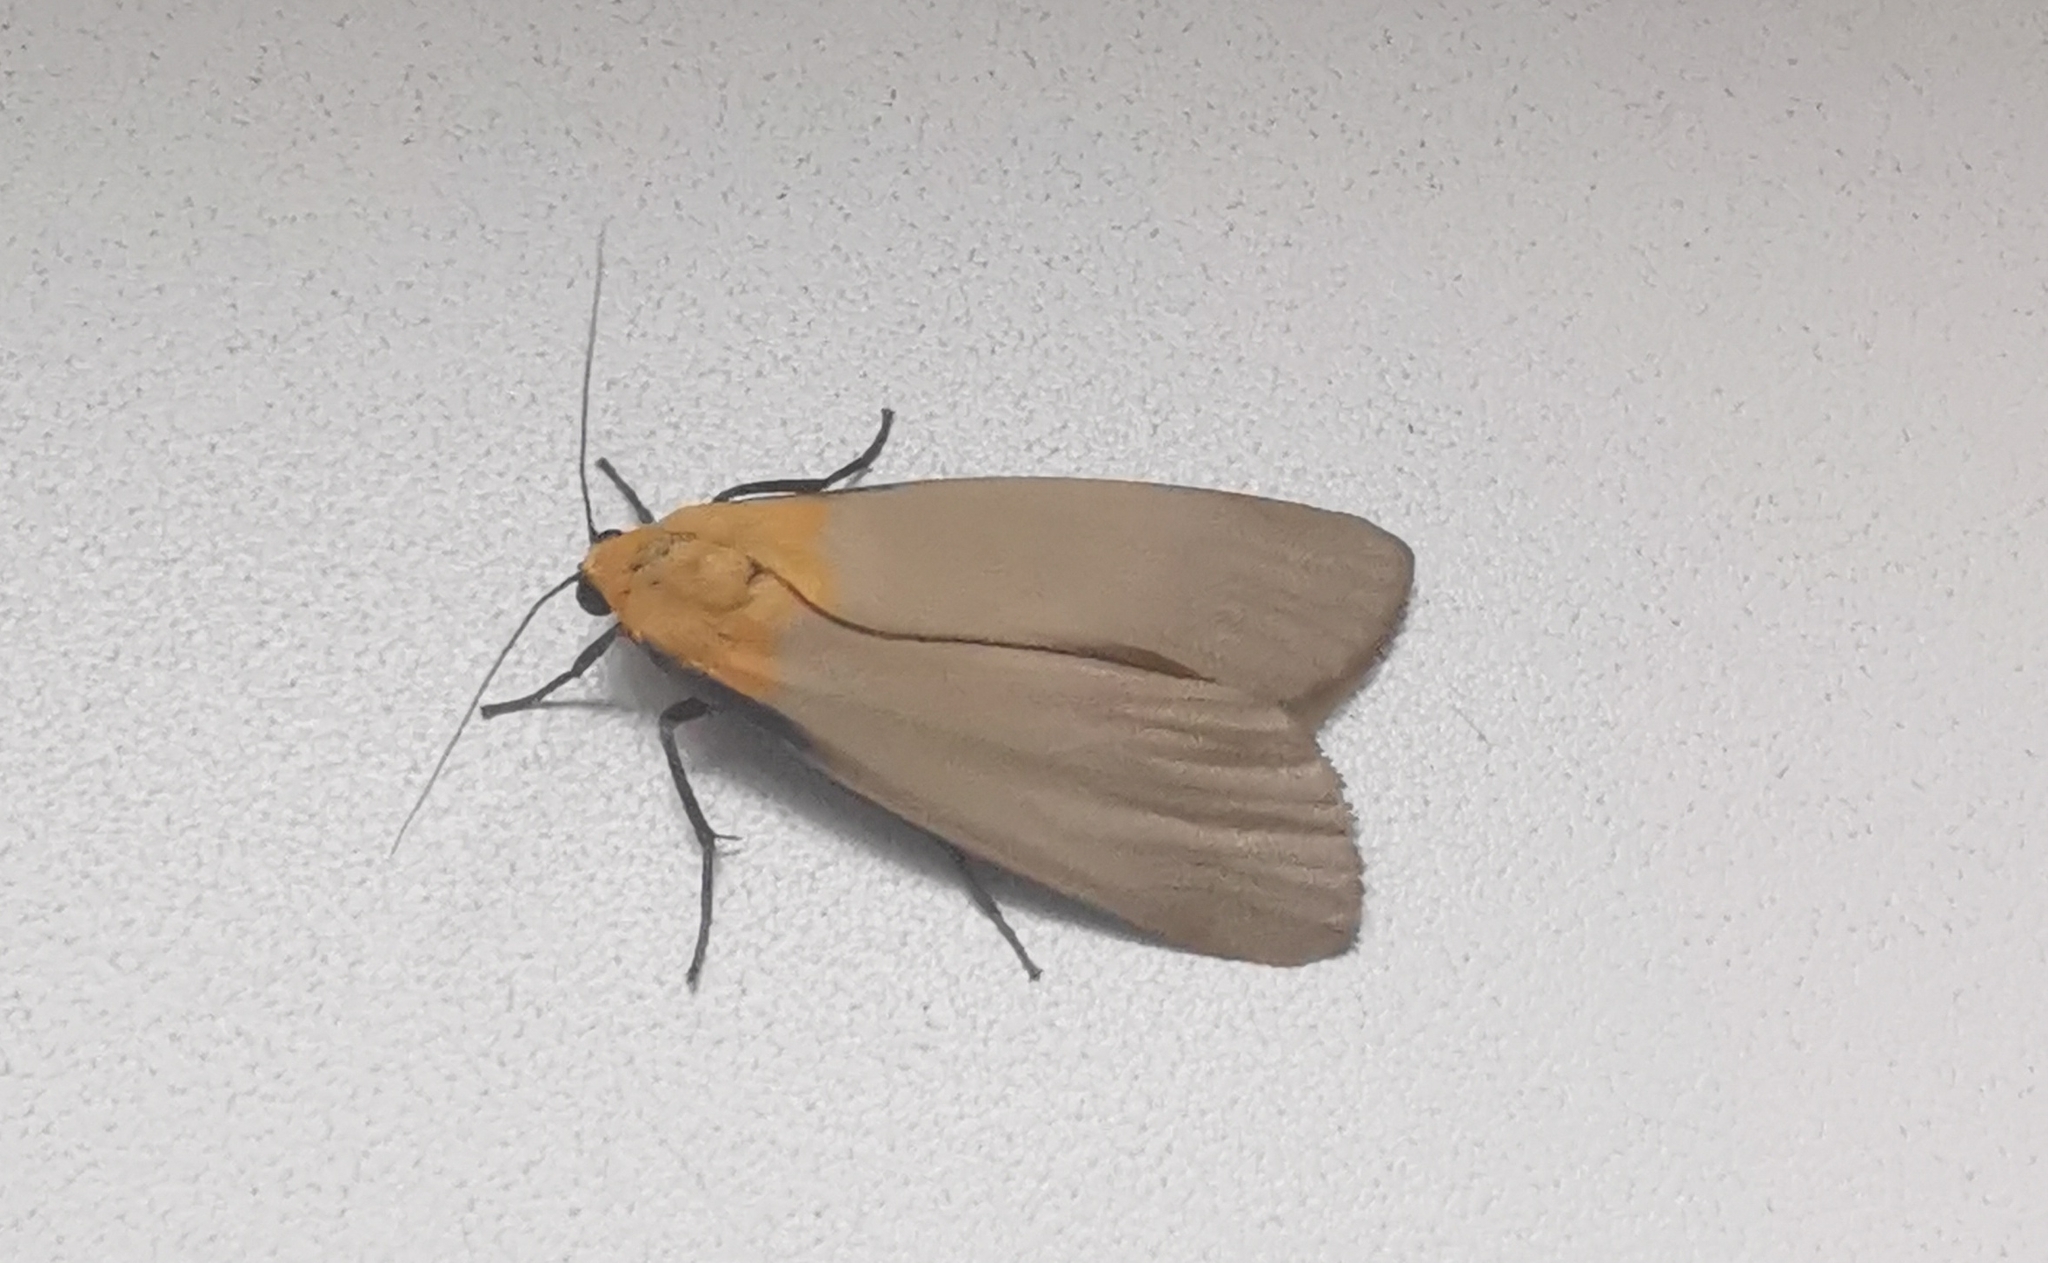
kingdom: Animalia
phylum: Arthropoda
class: Insecta
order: Lepidoptera
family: Erebidae
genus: Lithosia
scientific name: Lithosia quadra
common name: Four-spotted footman
